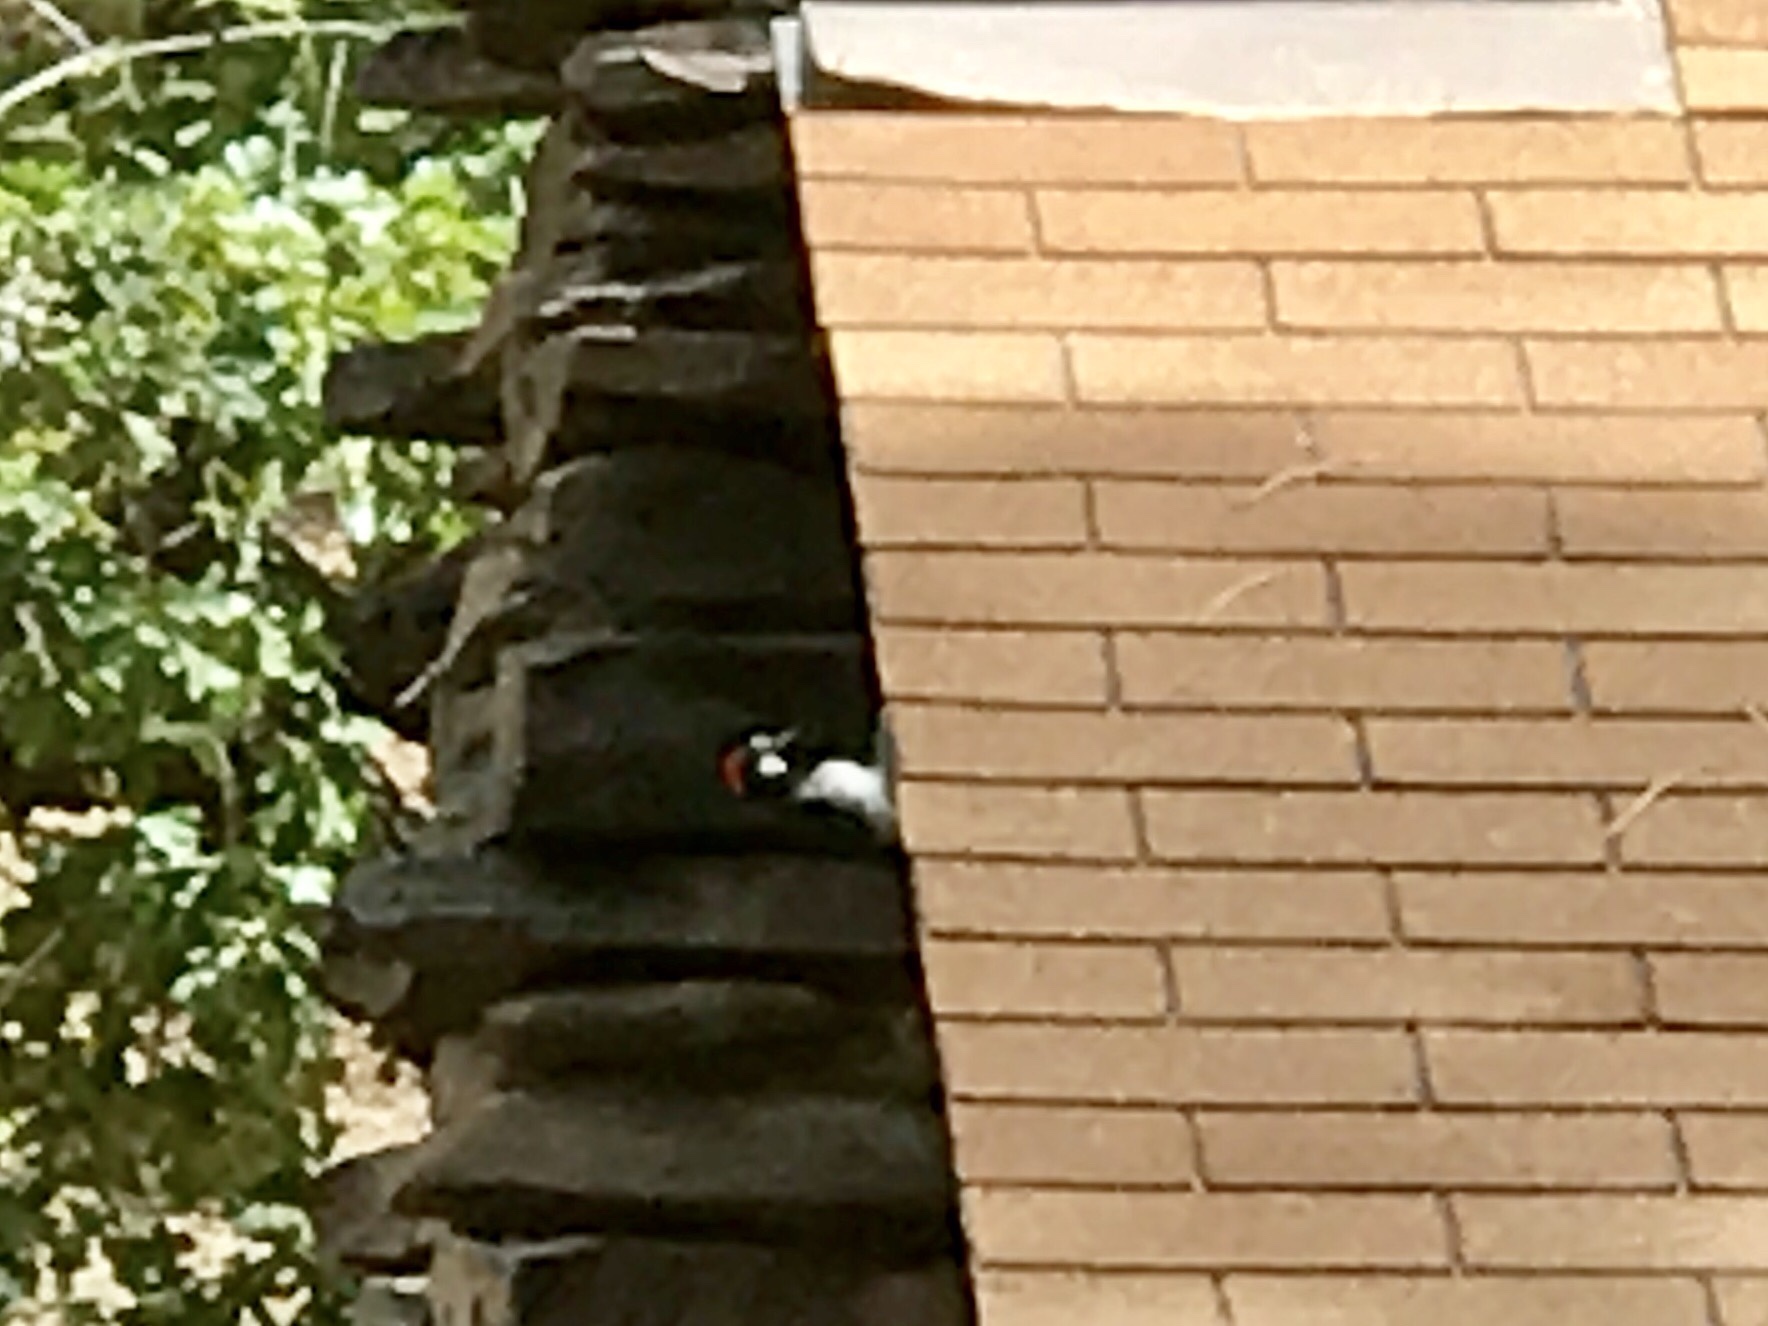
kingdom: Animalia
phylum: Chordata
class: Aves
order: Piciformes
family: Picidae
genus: Melanerpes
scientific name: Melanerpes formicivorus
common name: Acorn woodpecker
